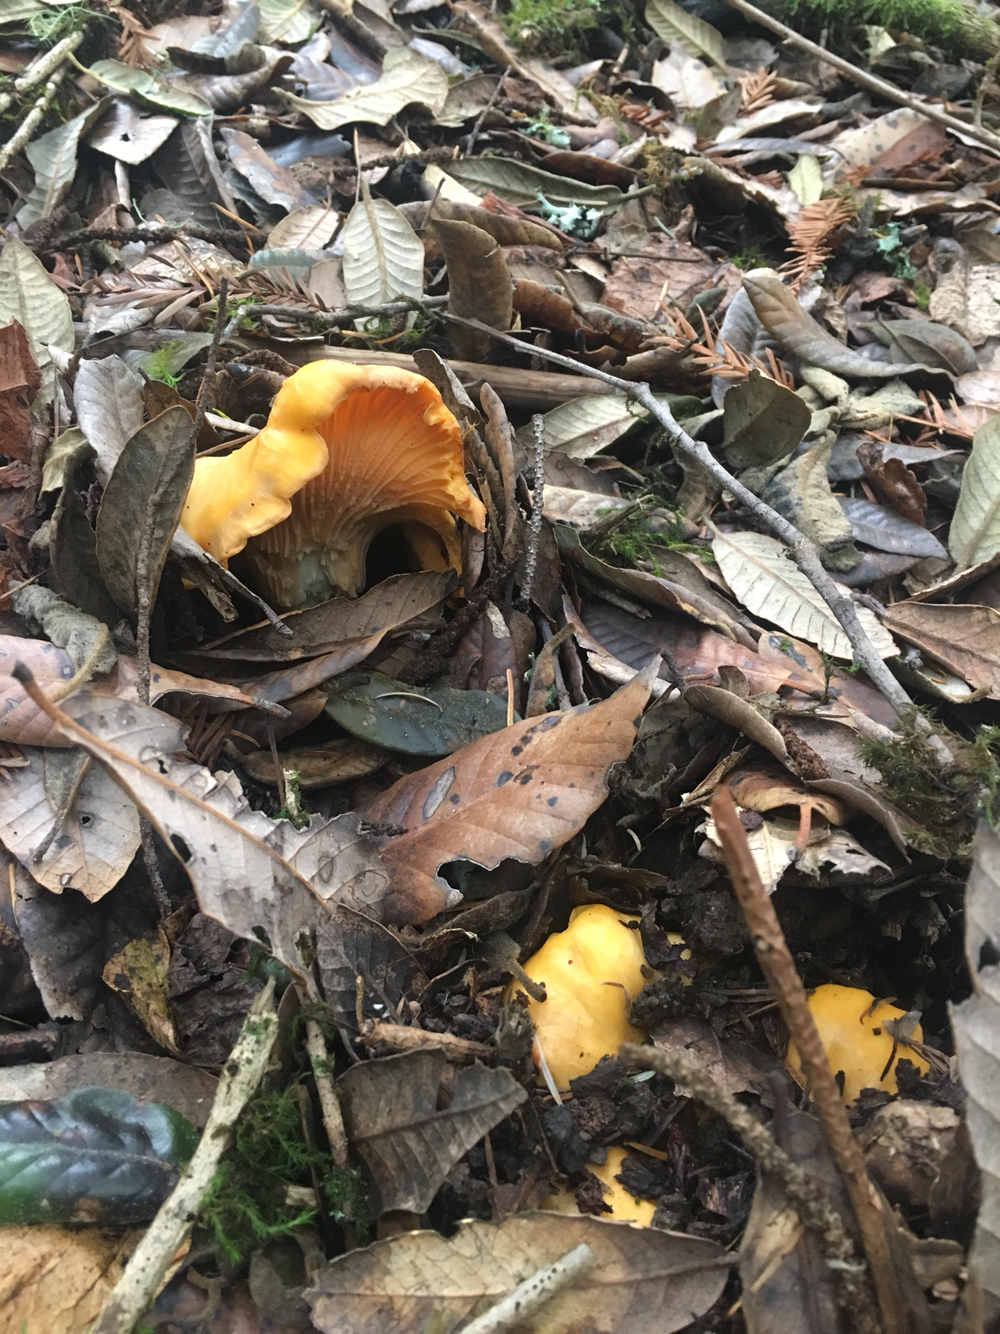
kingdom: Fungi
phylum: Basidiomycota
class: Agaricomycetes
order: Cantharellales
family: Hydnaceae
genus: Cantharellus
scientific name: Cantharellus californicus
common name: California golden chanterelle
